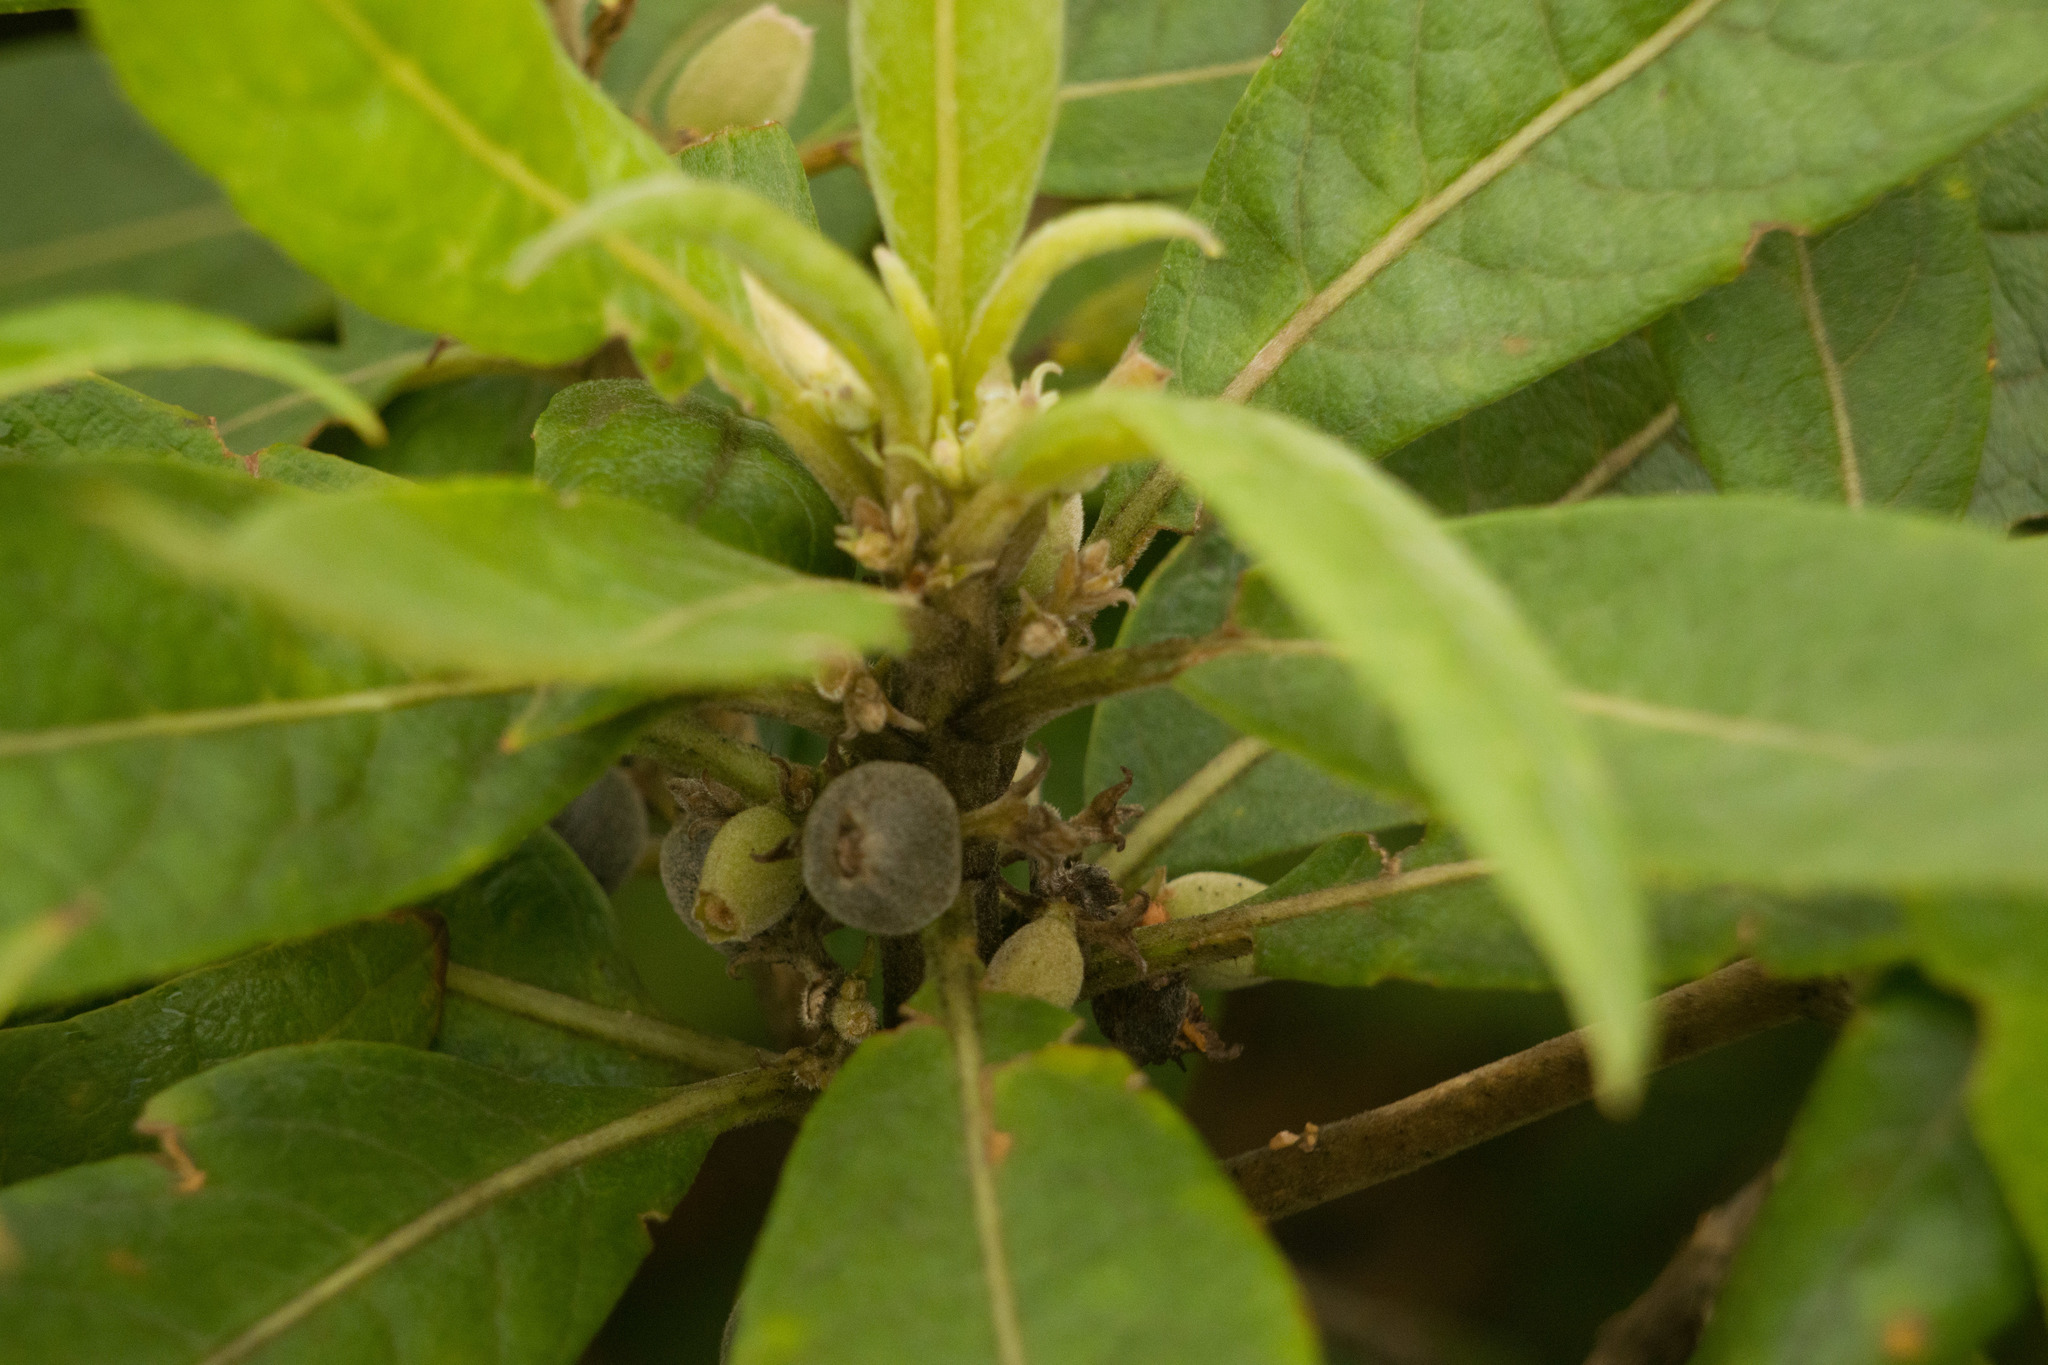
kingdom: Plantae
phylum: Tracheophyta
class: Magnoliopsida
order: Asterales
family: Goodeniaceae
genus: Scaevola
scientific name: Scaevola mollis
